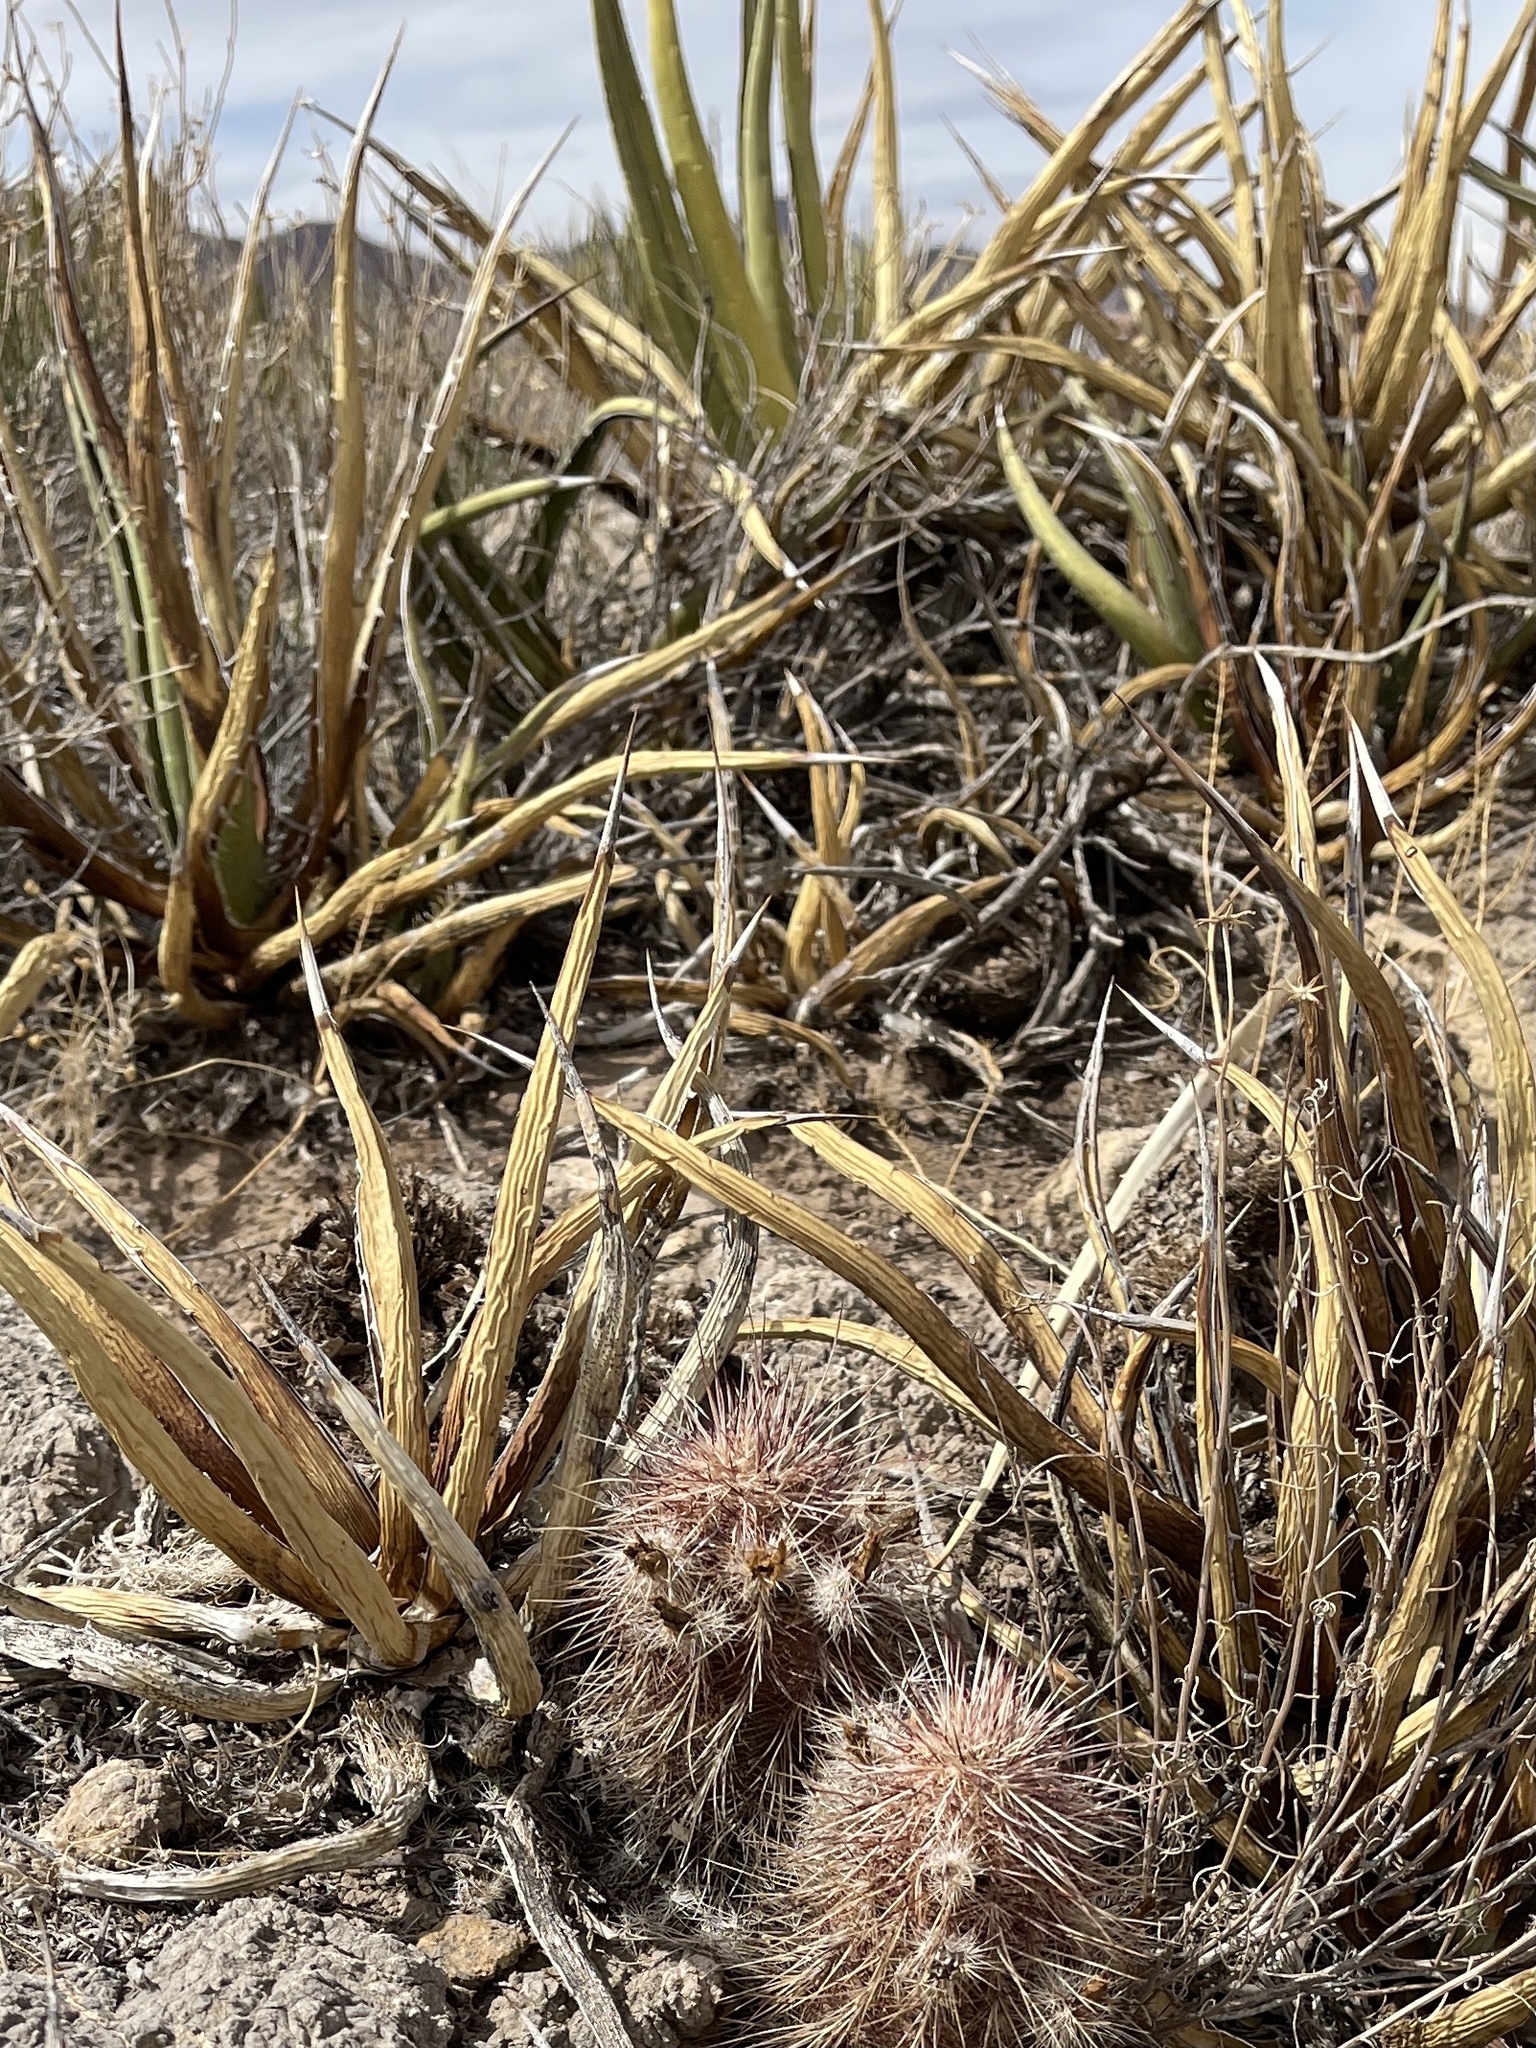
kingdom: Plantae
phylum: Tracheophyta
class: Liliopsida
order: Asparagales
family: Asparagaceae
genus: Agave
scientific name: Agave lechuguilla
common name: Lecheguilla agave
